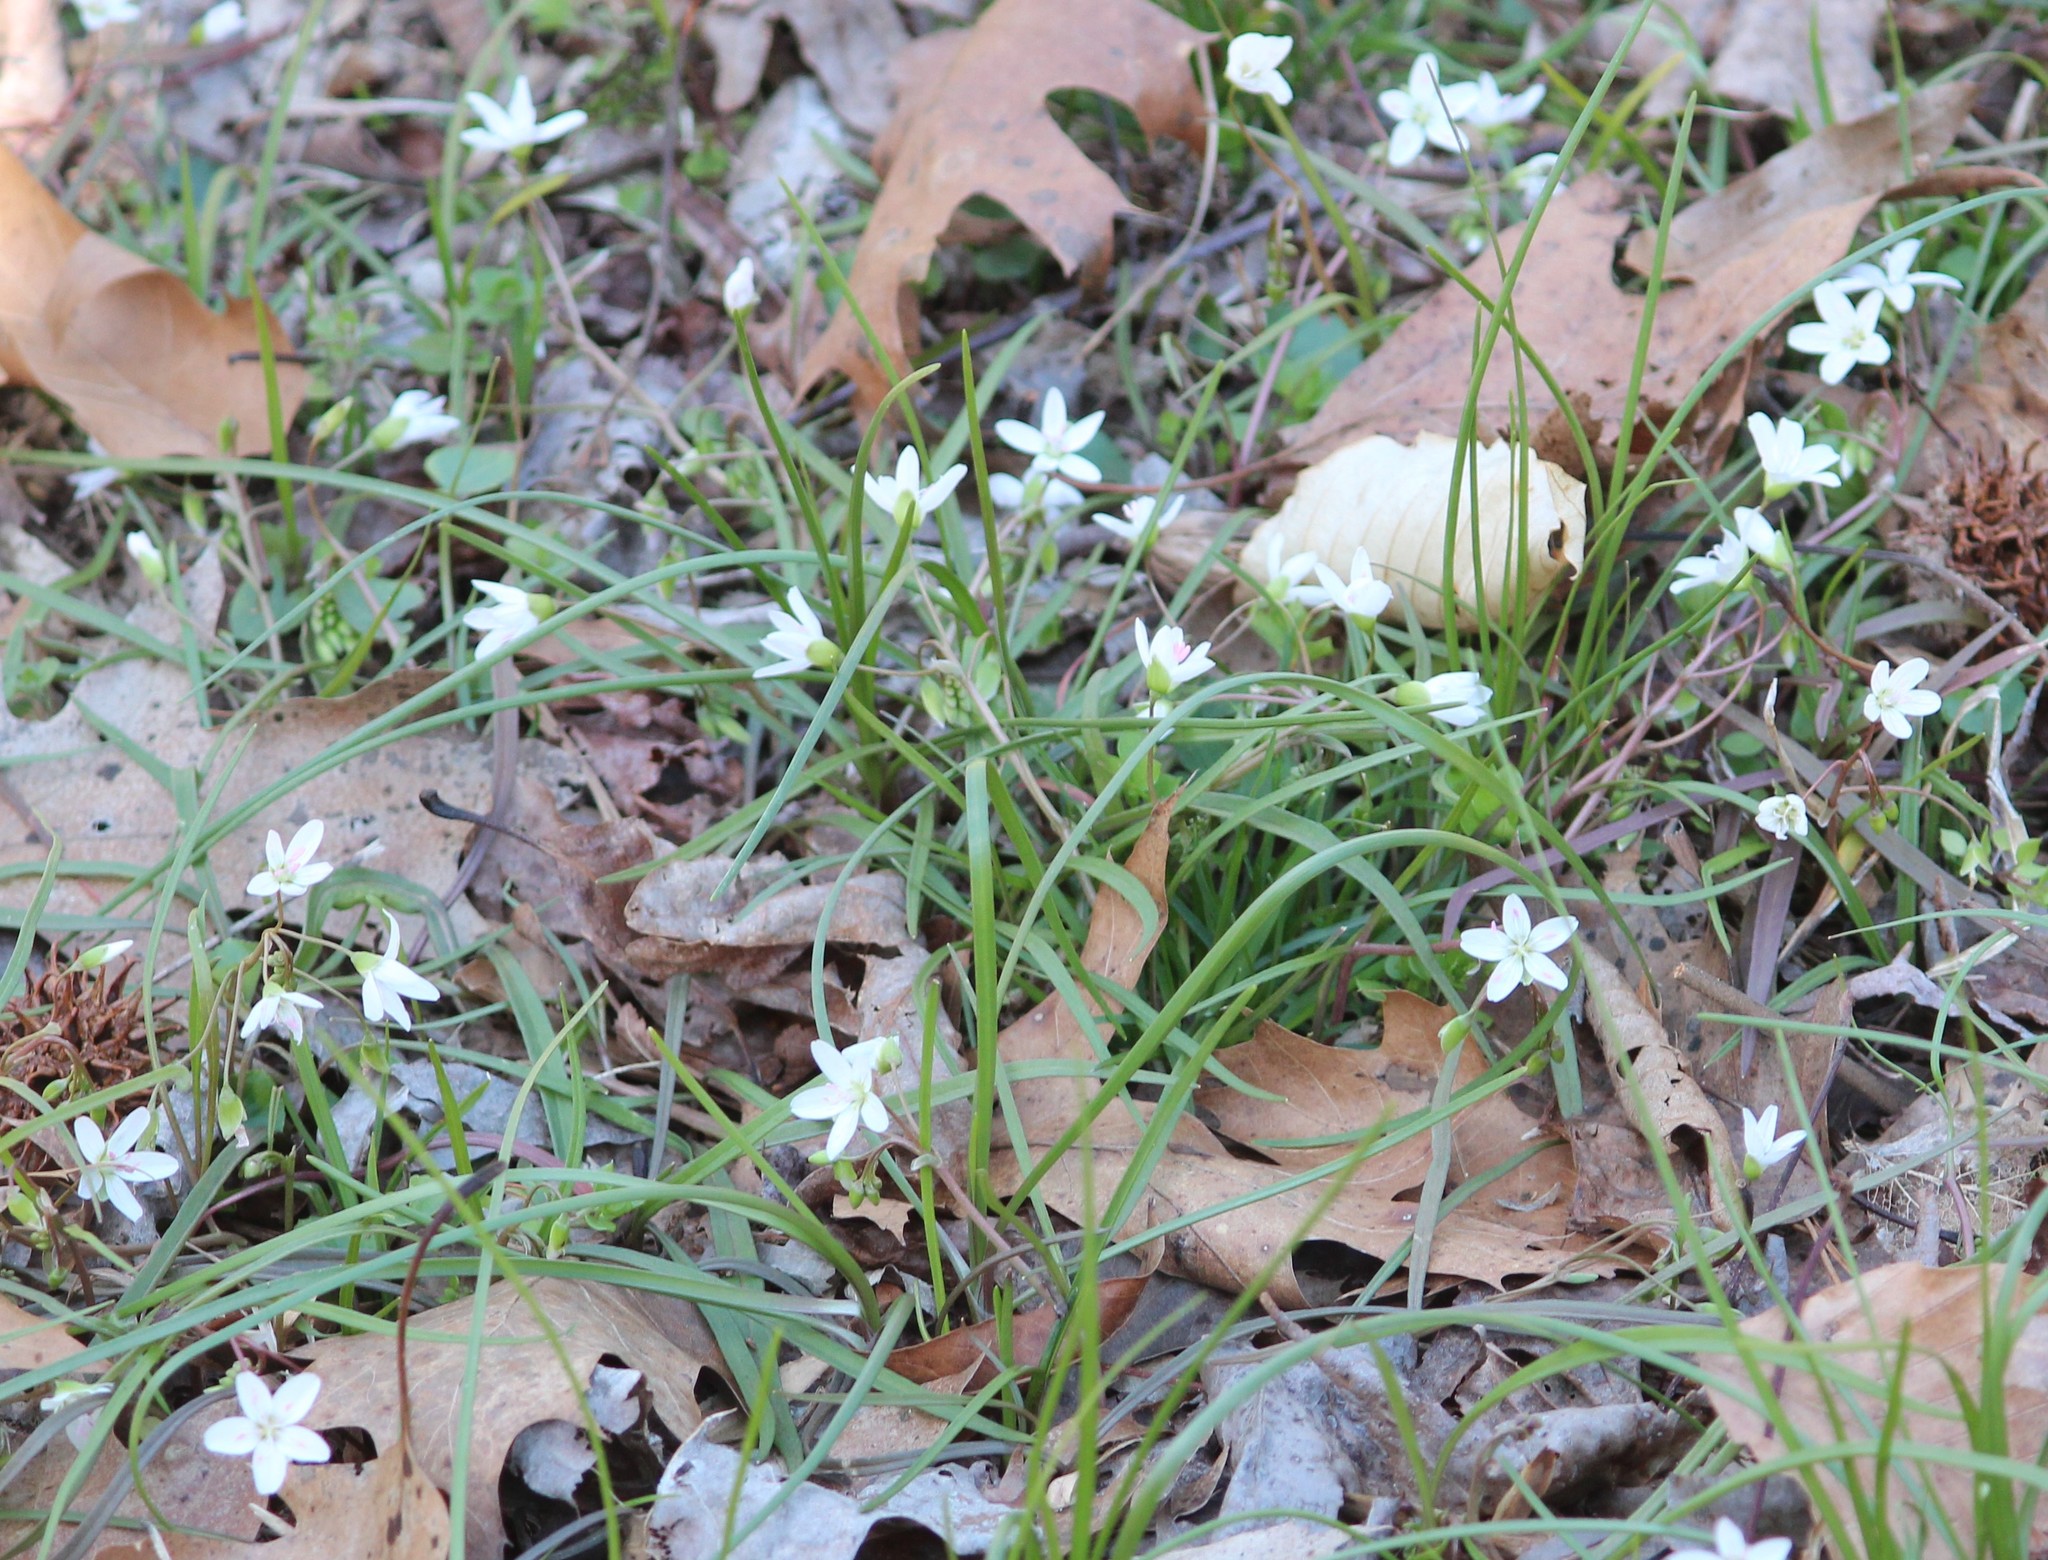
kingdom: Plantae
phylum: Tracheophyta
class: Magnoliopsida
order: Caryophyllales
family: Montiaceae
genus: Claytonia
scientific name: Claytonia virginica
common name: Virginia springbeauty
